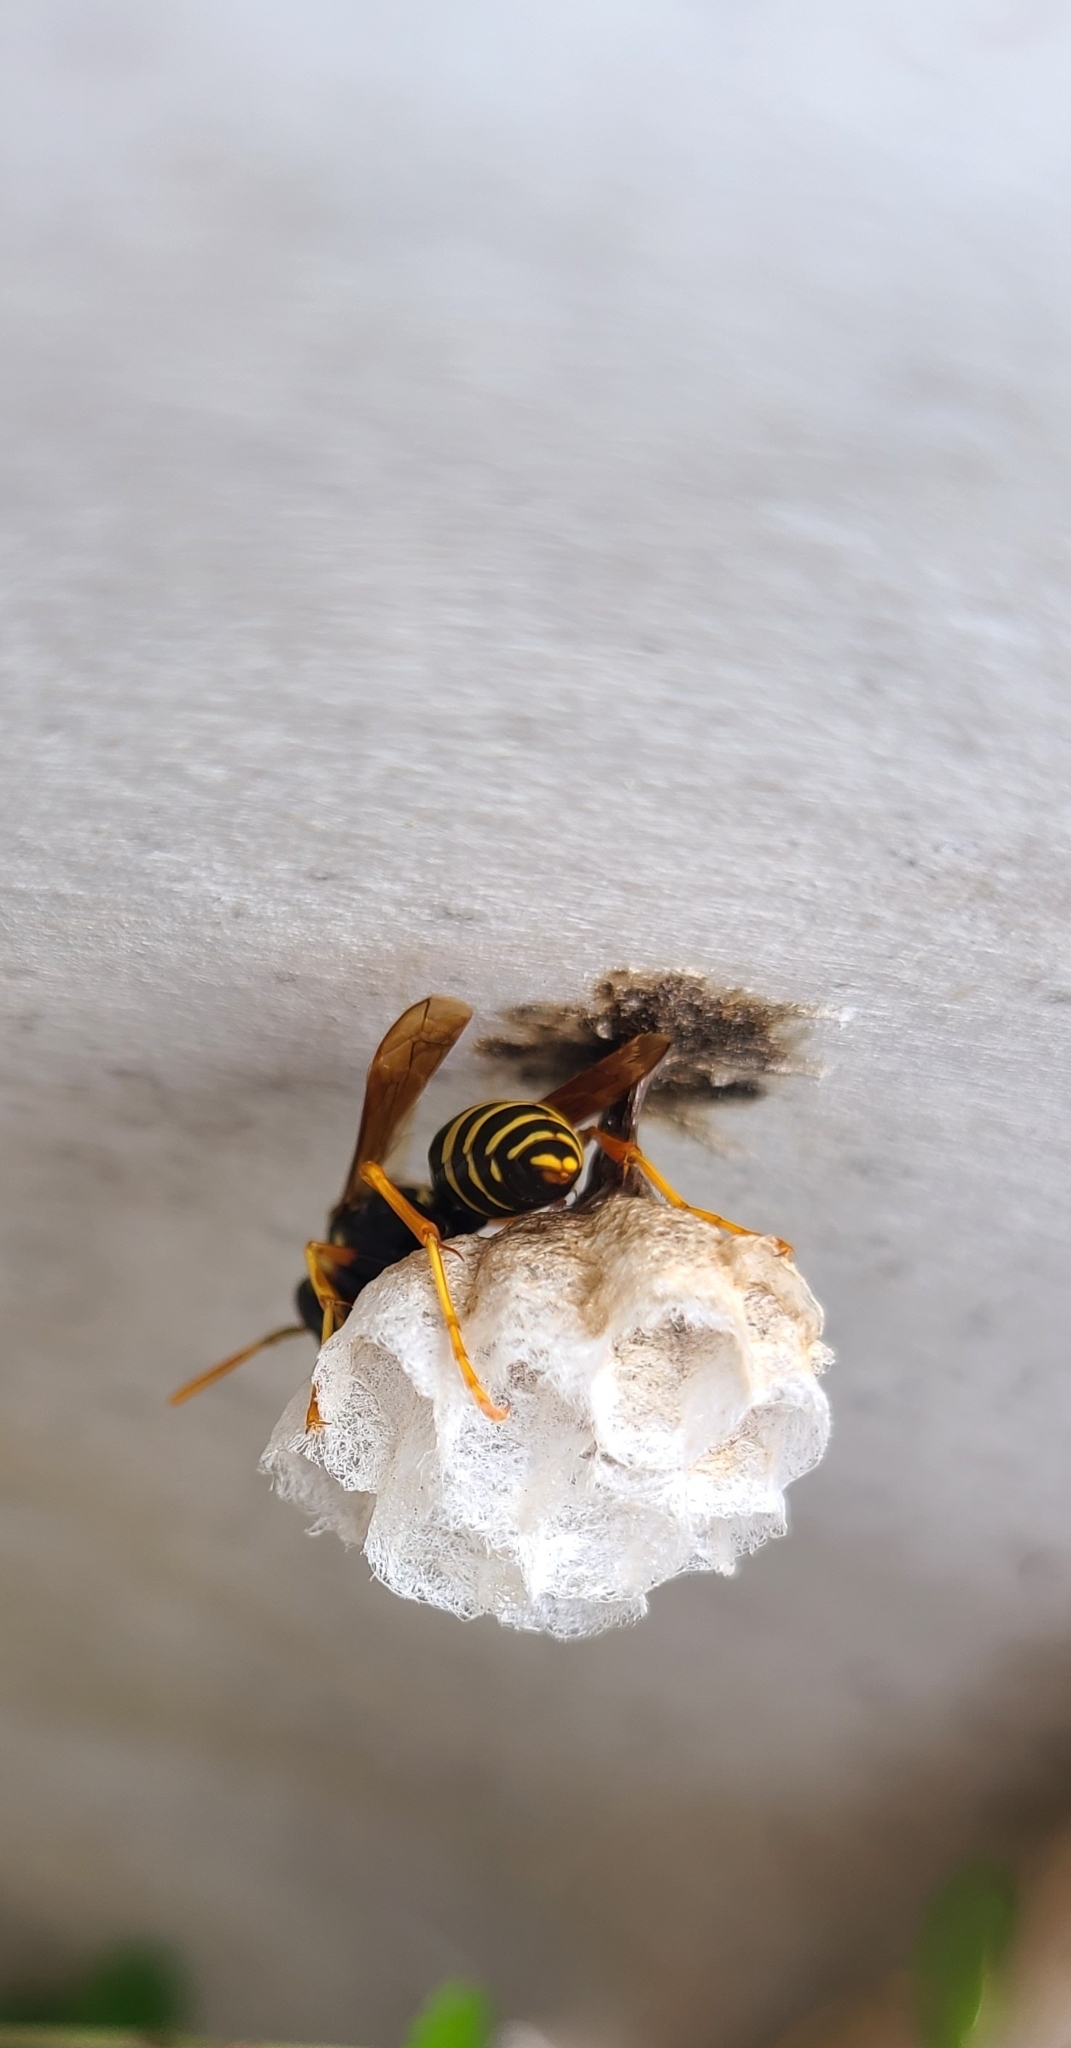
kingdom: Animalia
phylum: Arthropoda
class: Insecta
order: Hymenoptera
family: Eumenidae
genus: Polistes
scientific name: Polistes chinensis
